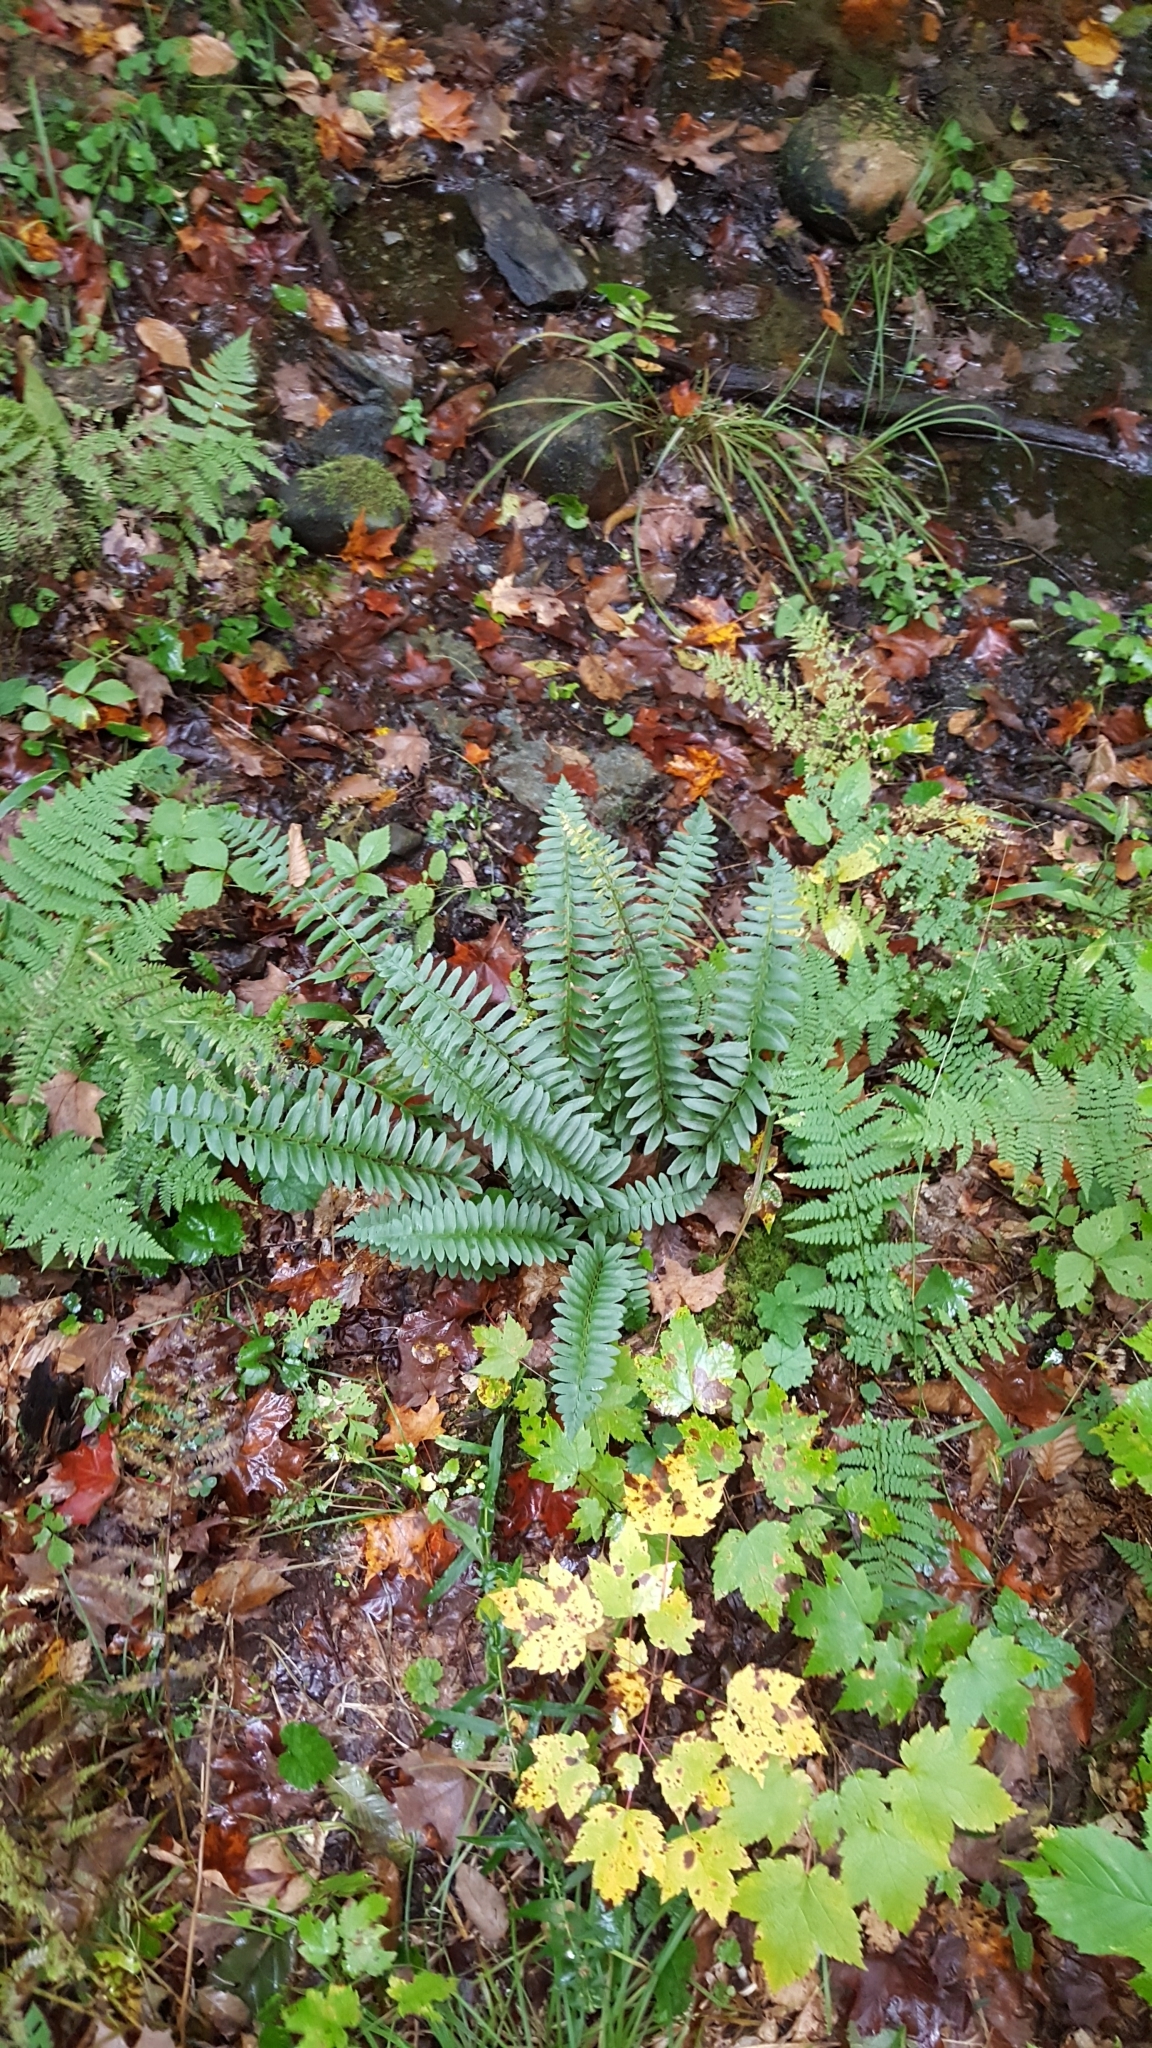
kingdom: Plantae
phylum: Tracheophyta
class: Polypodiopsida
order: Polypodiales
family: Dryopteridaceae
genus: Polystichum
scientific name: Polystichum acrostichoides
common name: Christmas fern
